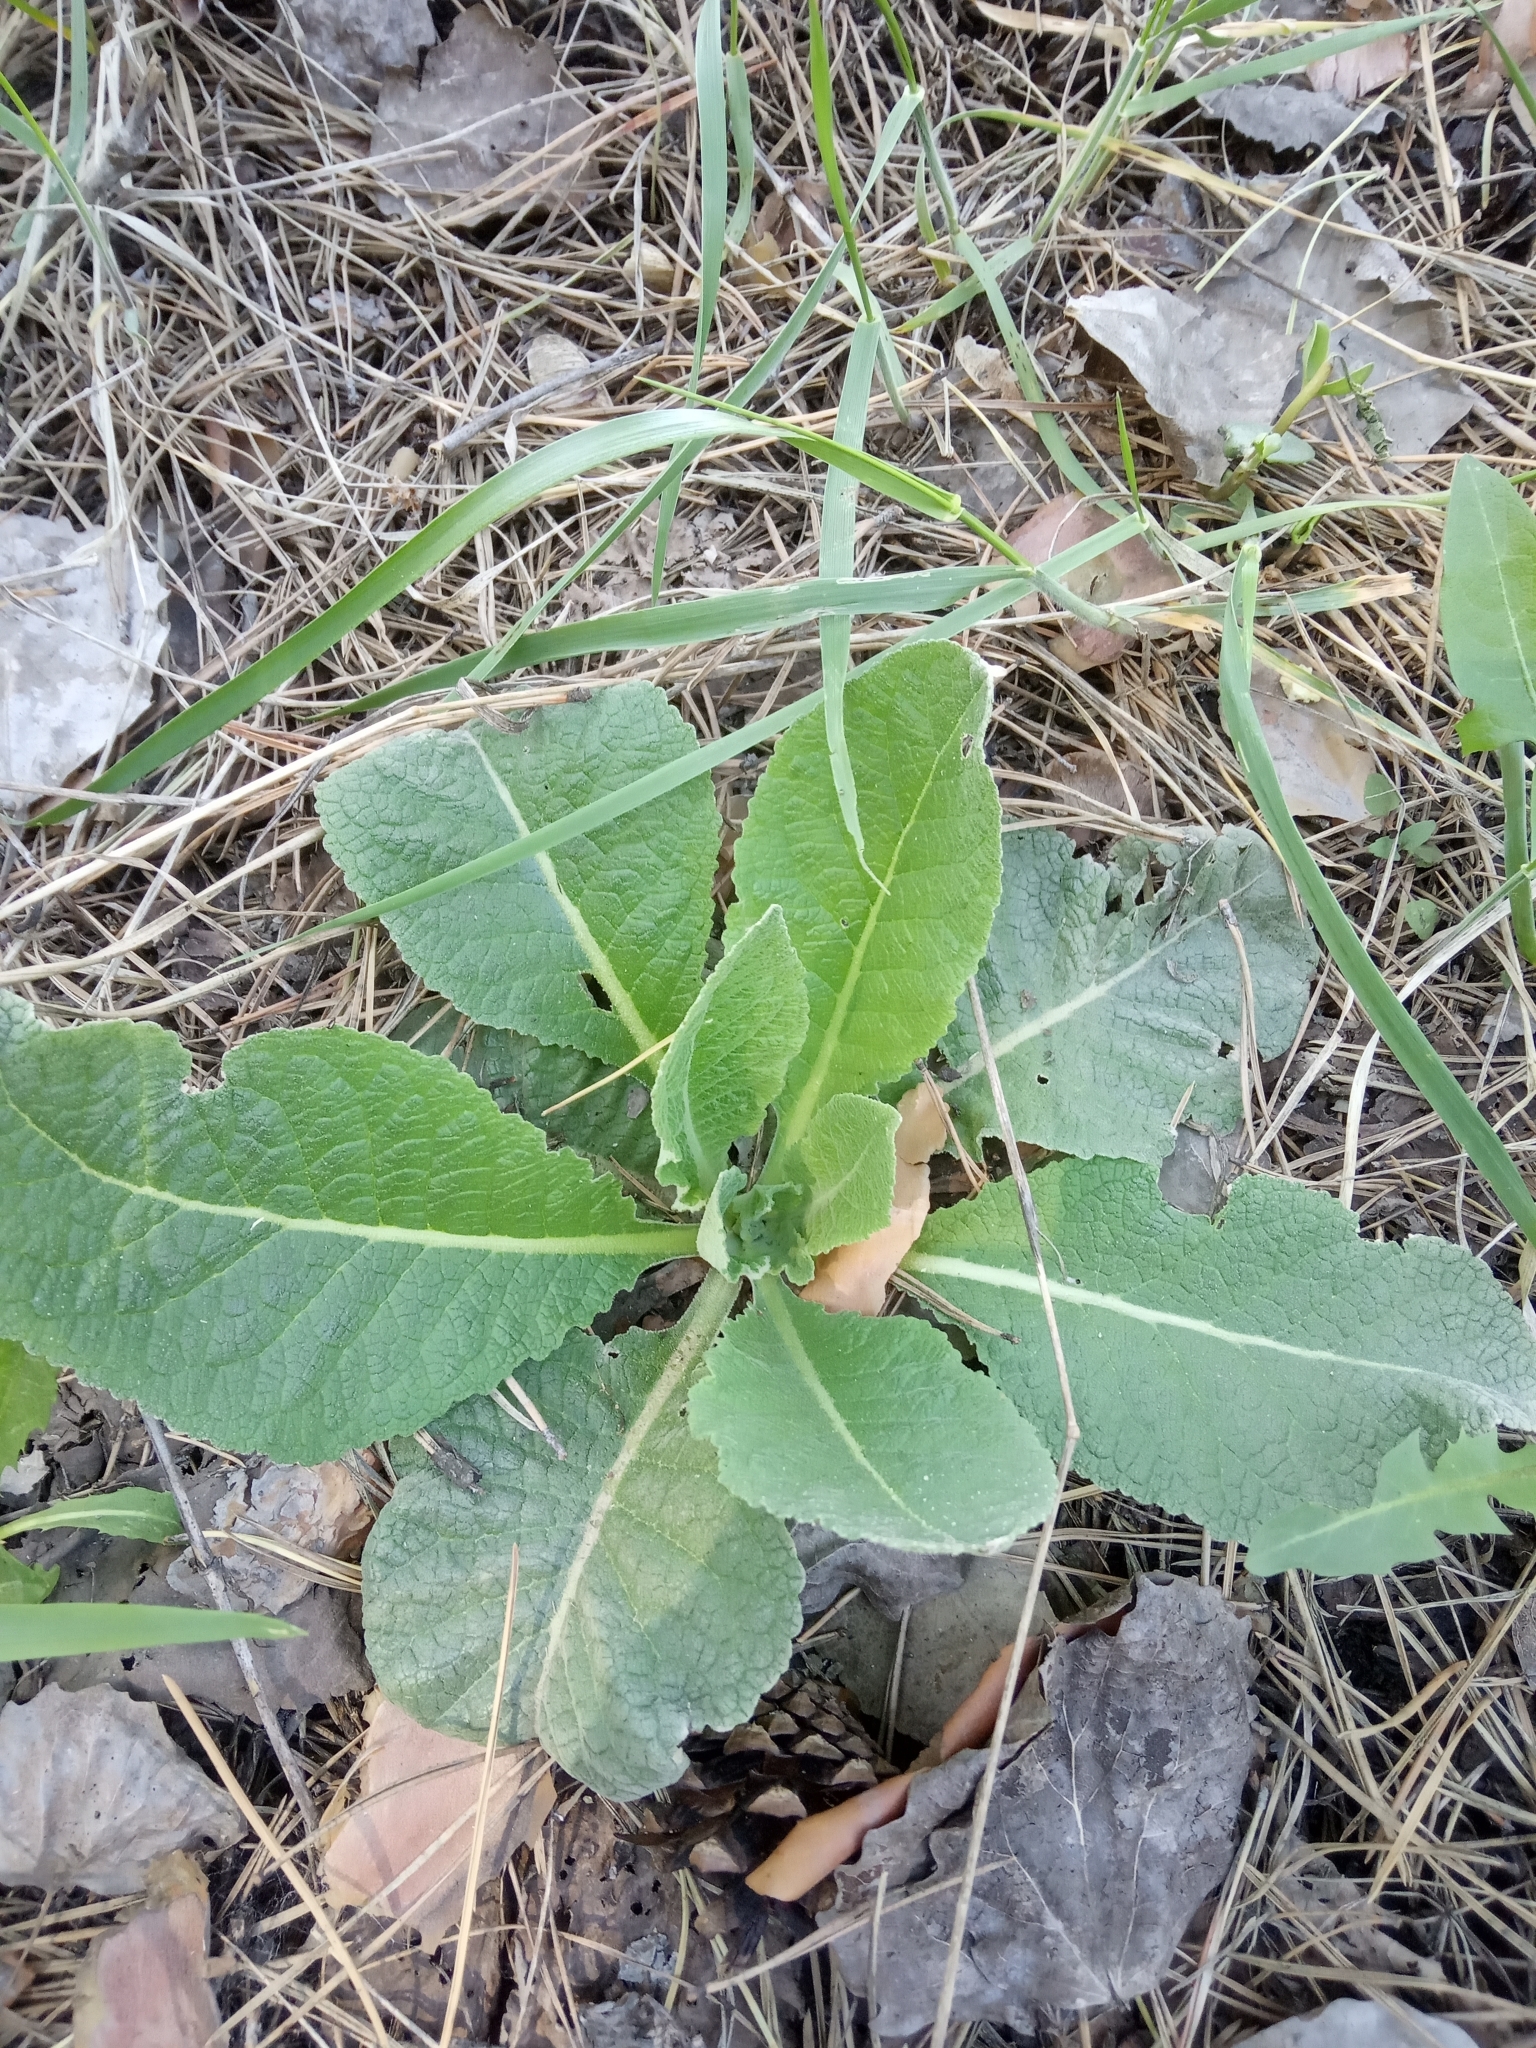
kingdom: Plantae
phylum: Tracheophyta
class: Magnoliopsida
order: Lamiales
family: Scrophulariaceae
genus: Verbascum
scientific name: Verbascum lychnitis
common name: White mullein
